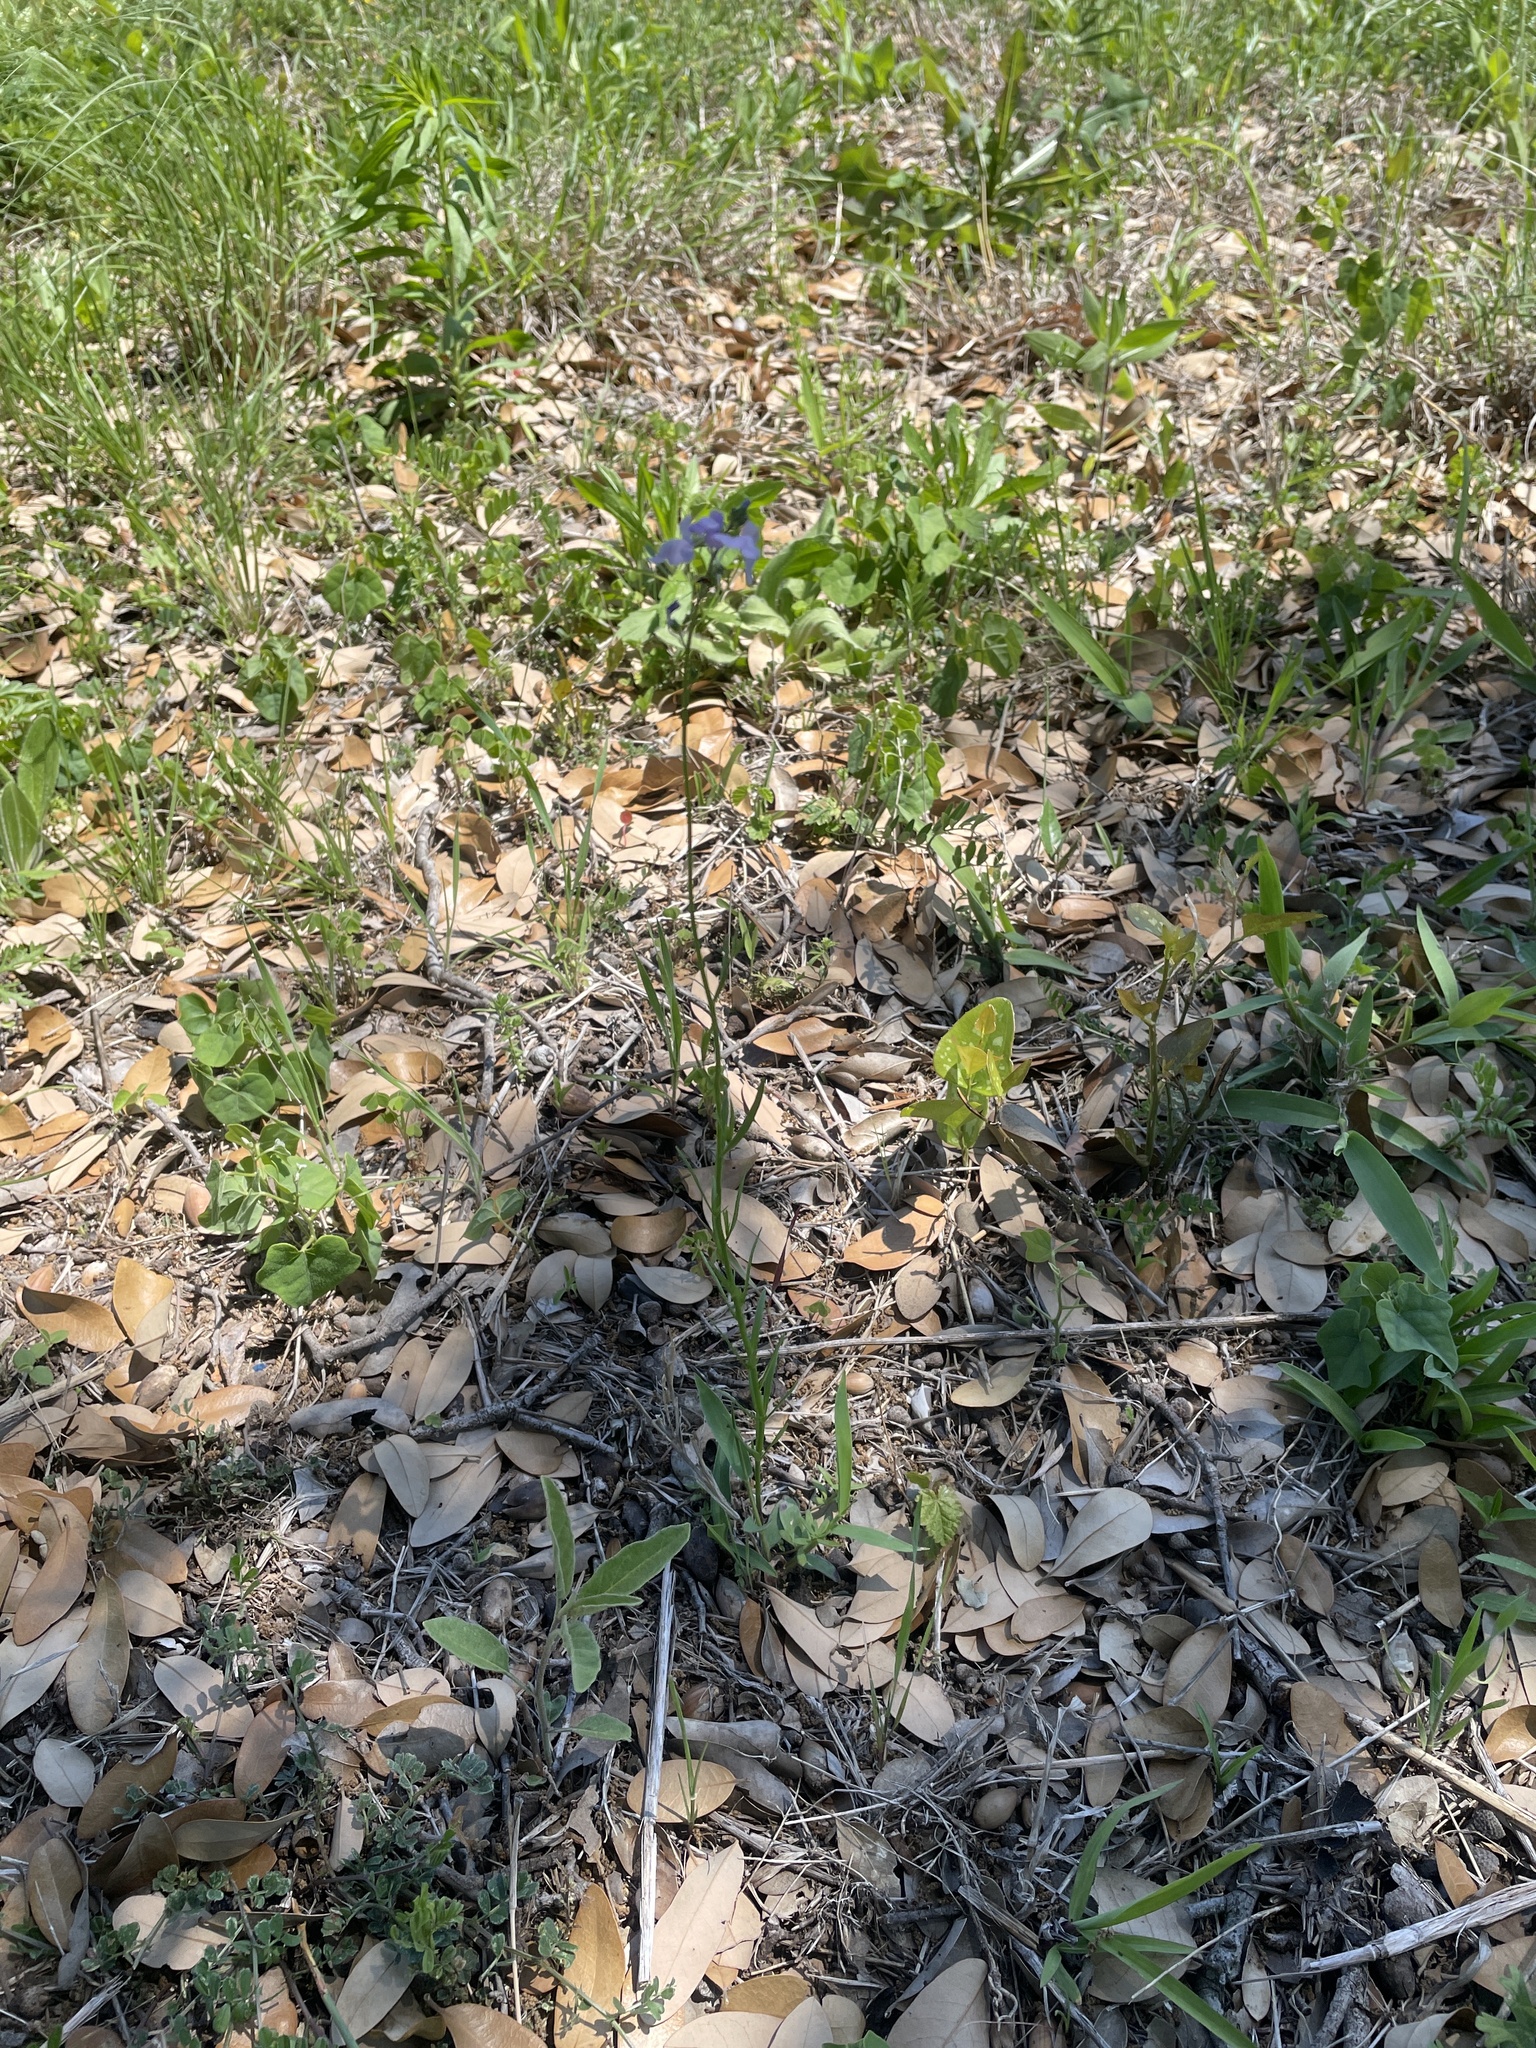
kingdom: Plantae
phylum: Tracheophyta
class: Magnoliopsida
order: Lamiales
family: Plantaginaceae
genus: Nuttallanthus
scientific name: Nuttallanthus texanus
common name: Texas toadflax
